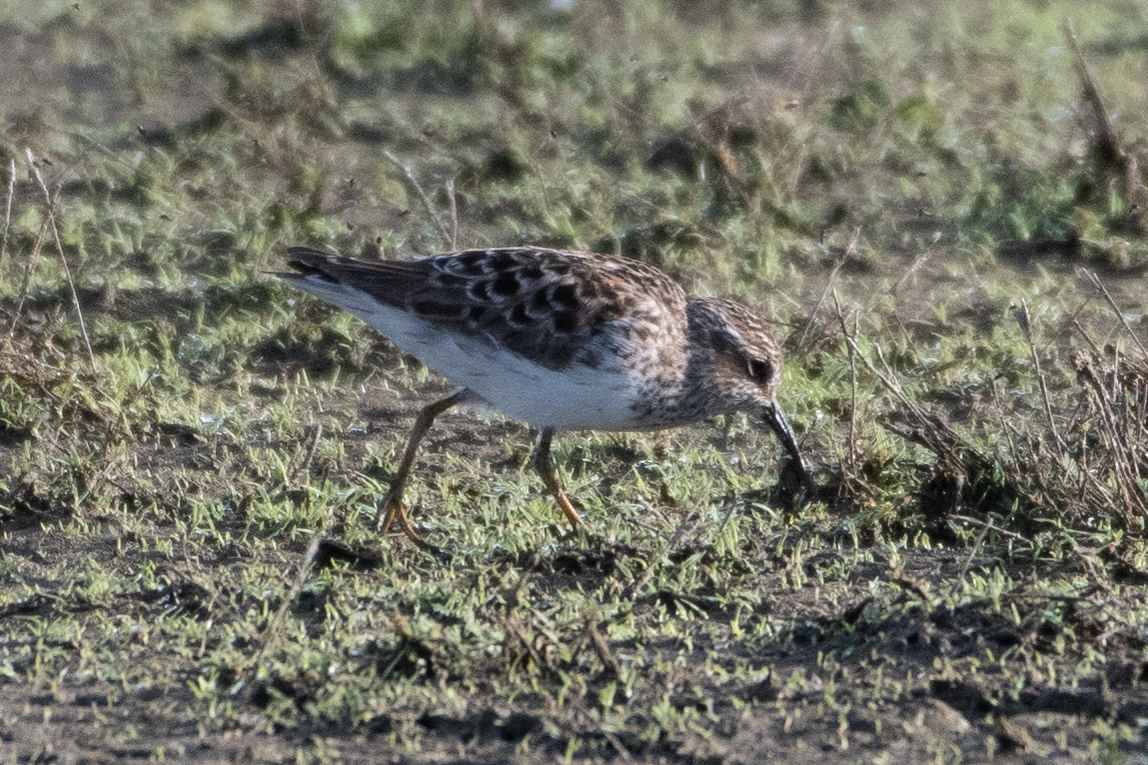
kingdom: Animalia
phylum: Chordata
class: Aves
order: Charadriiformes
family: Scolopacidae
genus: Calidris
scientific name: Calidris minutilla
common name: Least sandpiper
